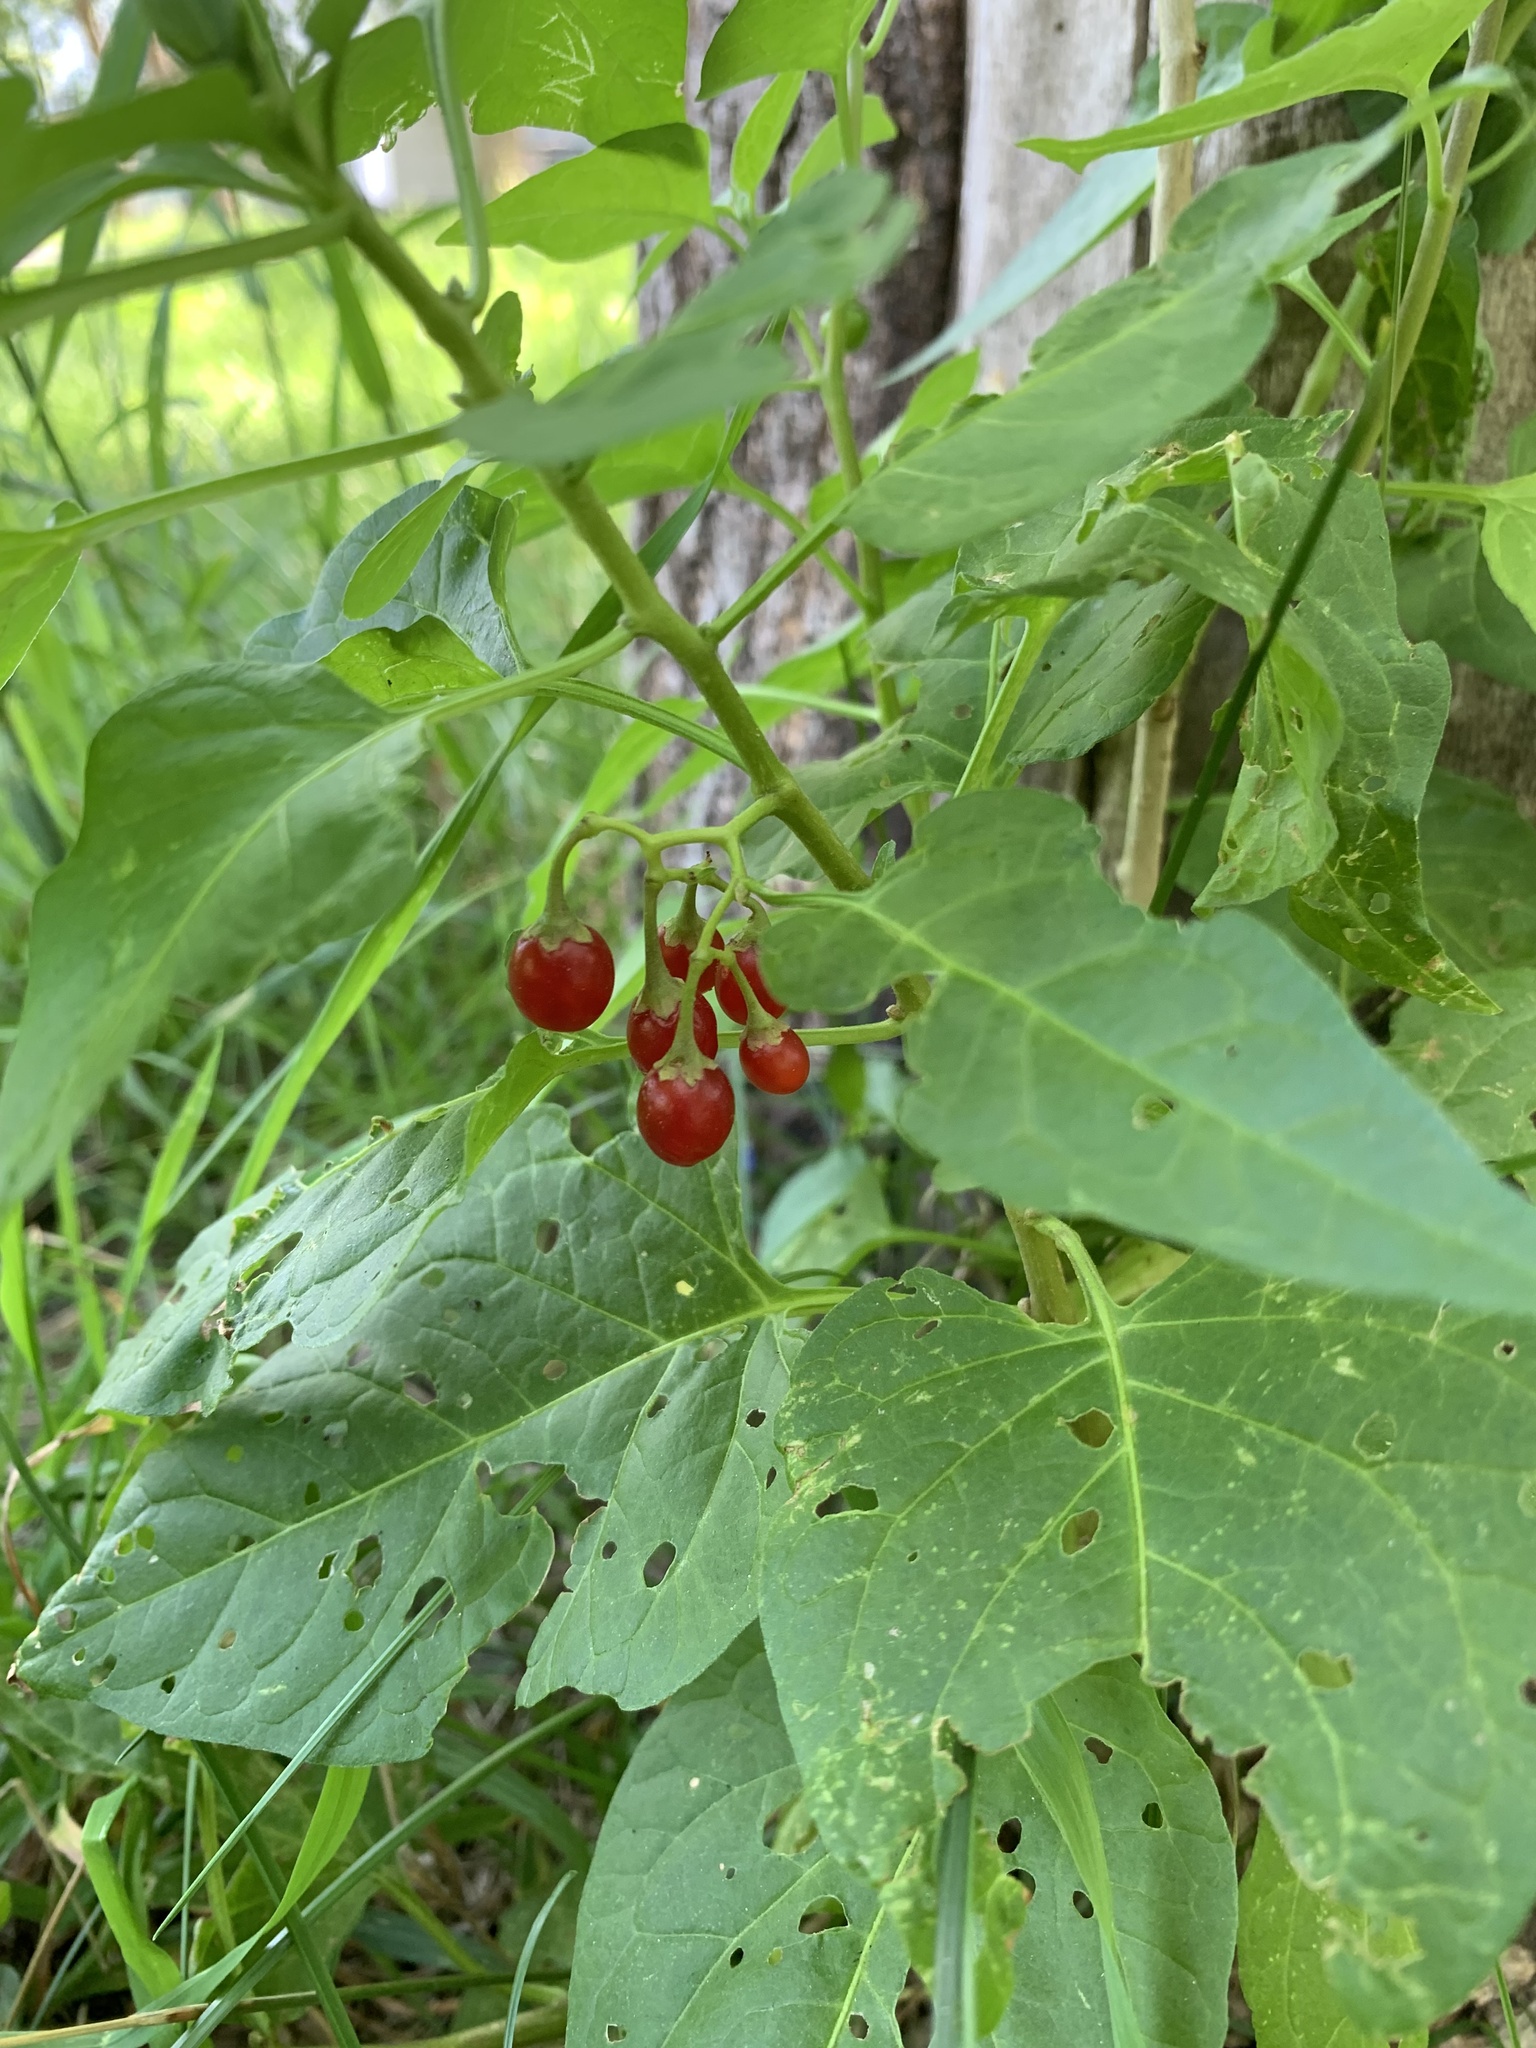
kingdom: Plantae
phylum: Tracheophyta
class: Magnoliopsida
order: Solanales
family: Solanaceae
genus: Solanum
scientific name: Solanum dulcamara
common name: Climbing nightshade
